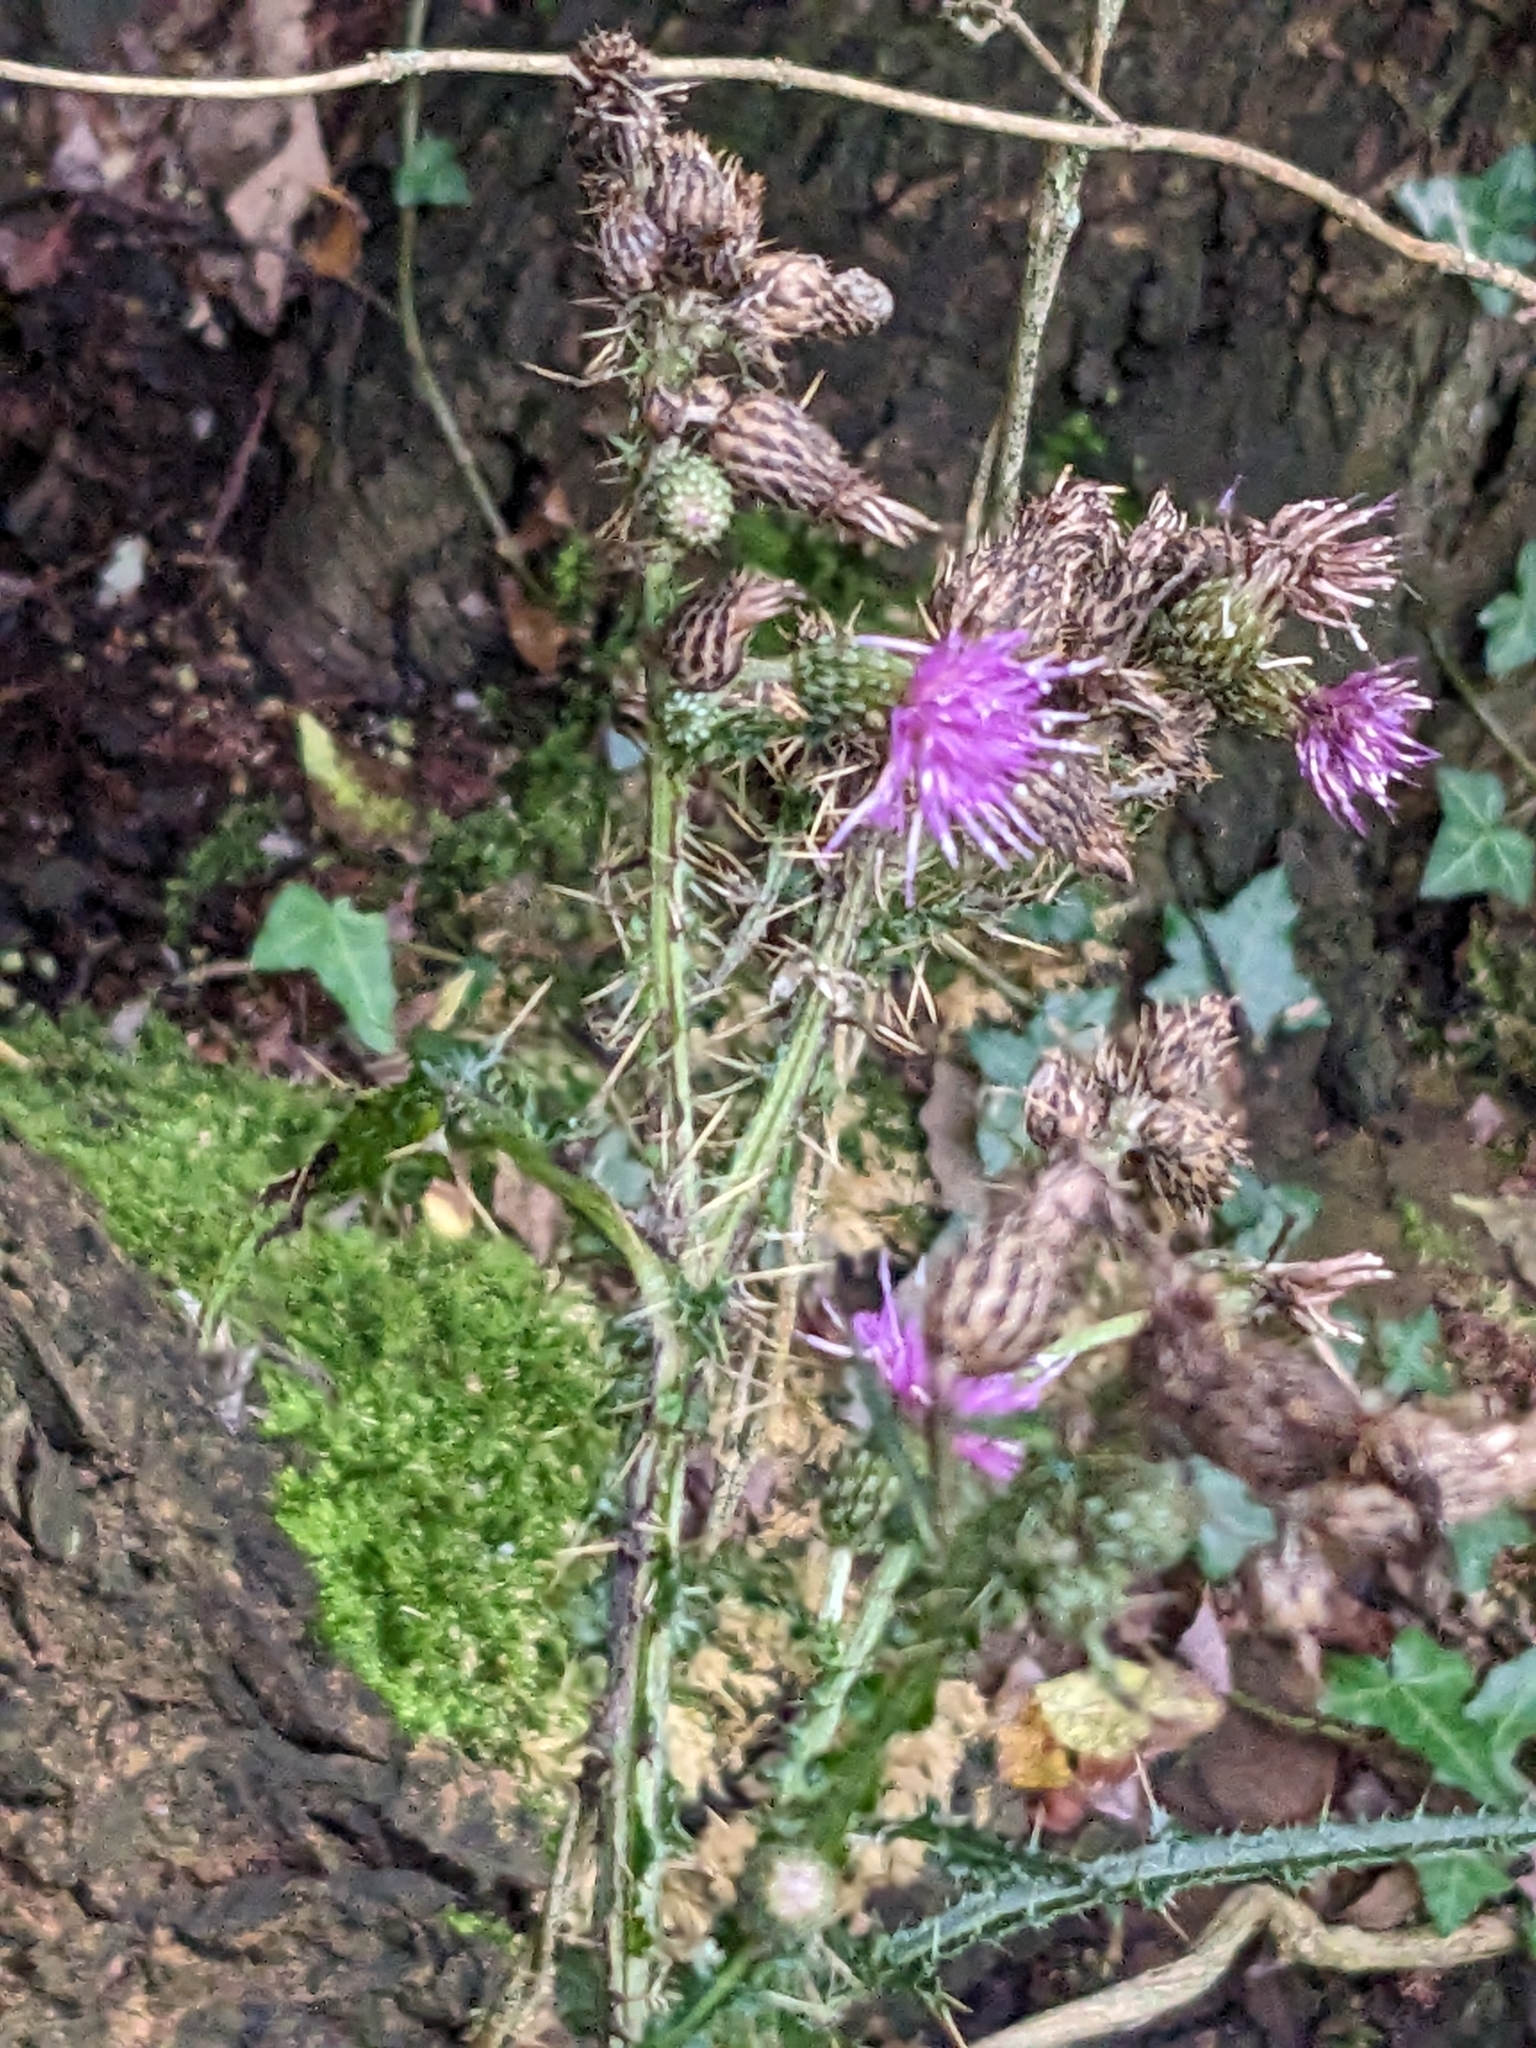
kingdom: Plantae
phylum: Tracheophyta
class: Magnoliopsida
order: Asterales
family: Asteraceae
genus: Cirsium
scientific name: Cirsium palustre
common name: Marsh thistle
